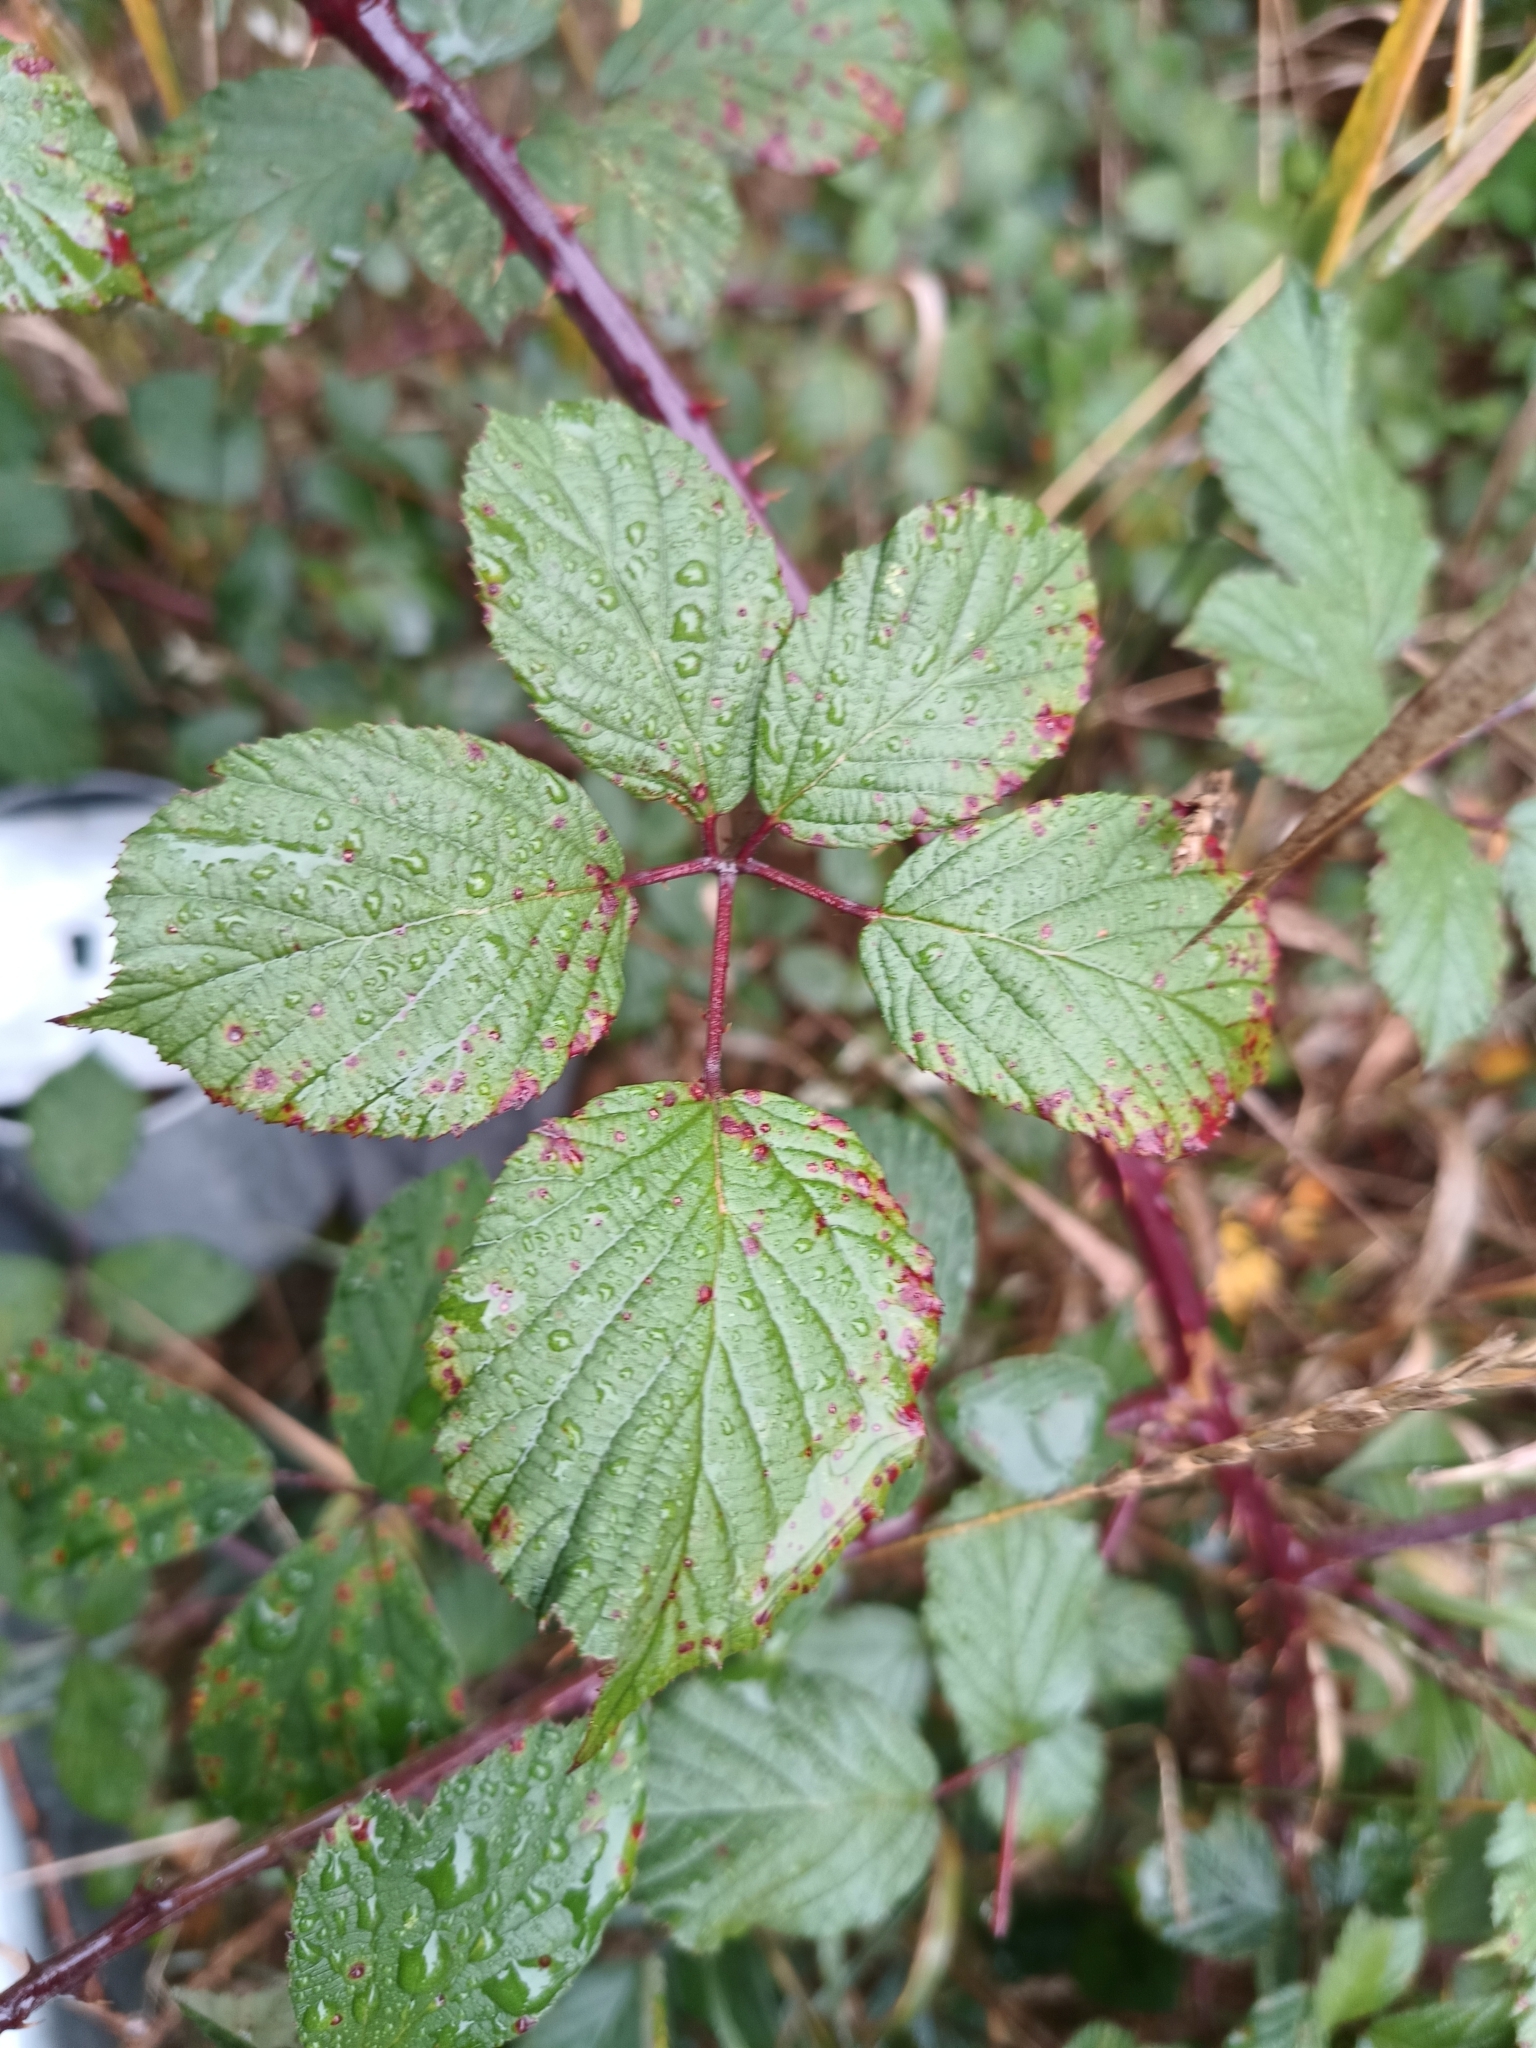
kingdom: Plantae
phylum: Tracheophyta
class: Magnoliopsida
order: Rosales
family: Rosaceae
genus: Rubus
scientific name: Rubus bifrons
